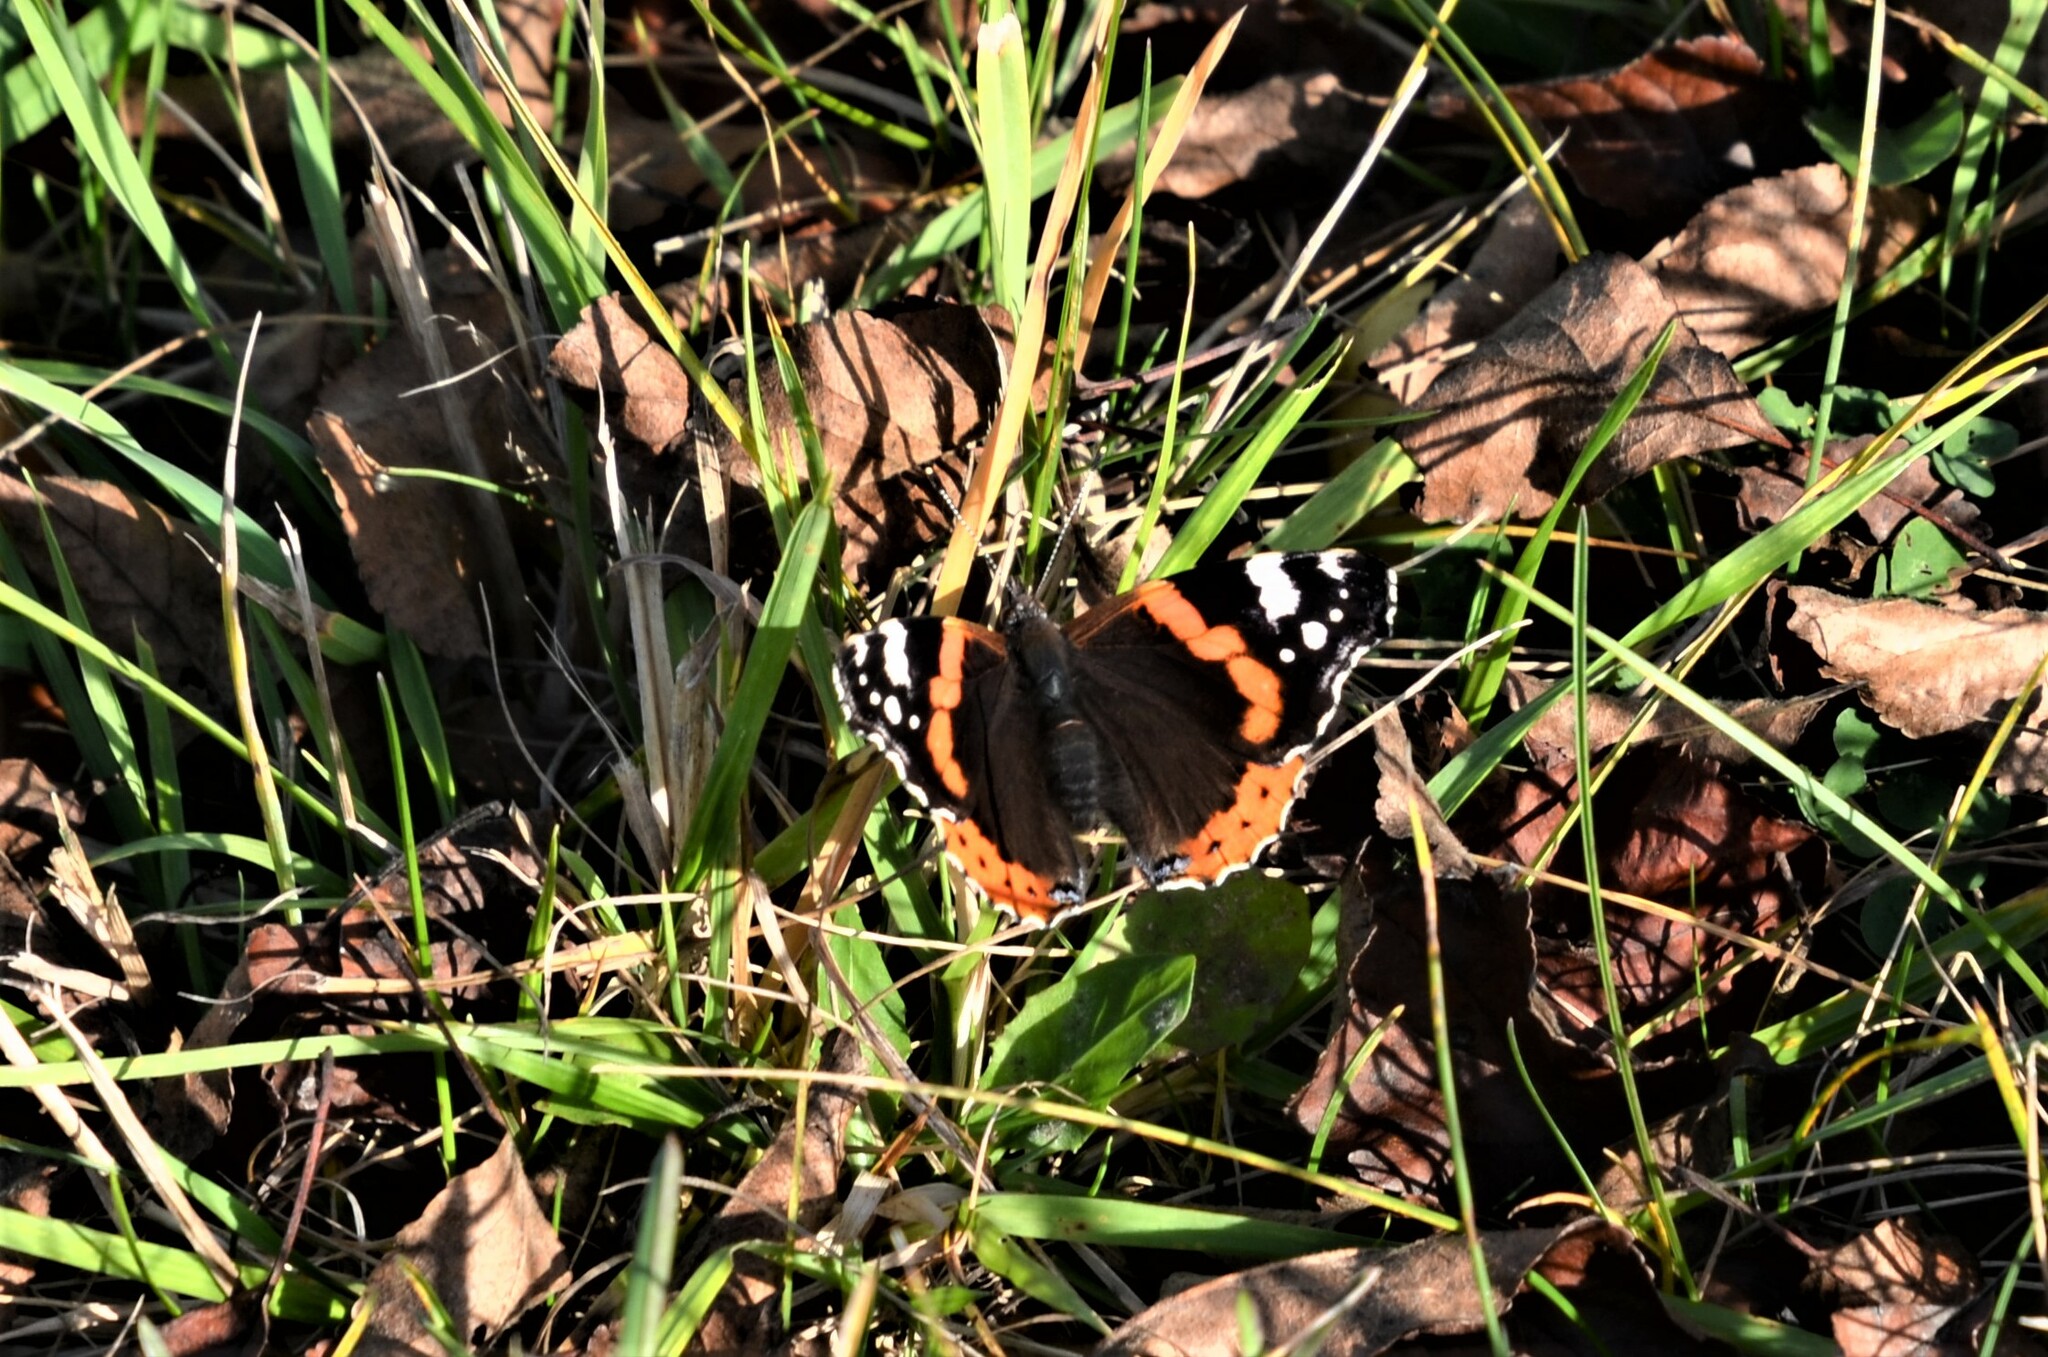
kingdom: Animalia
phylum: Arthropoda
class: Insecta
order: Lepidoptera
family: Nymphalidae
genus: Vanessa
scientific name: Vanessa atalanta
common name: Red admiral
